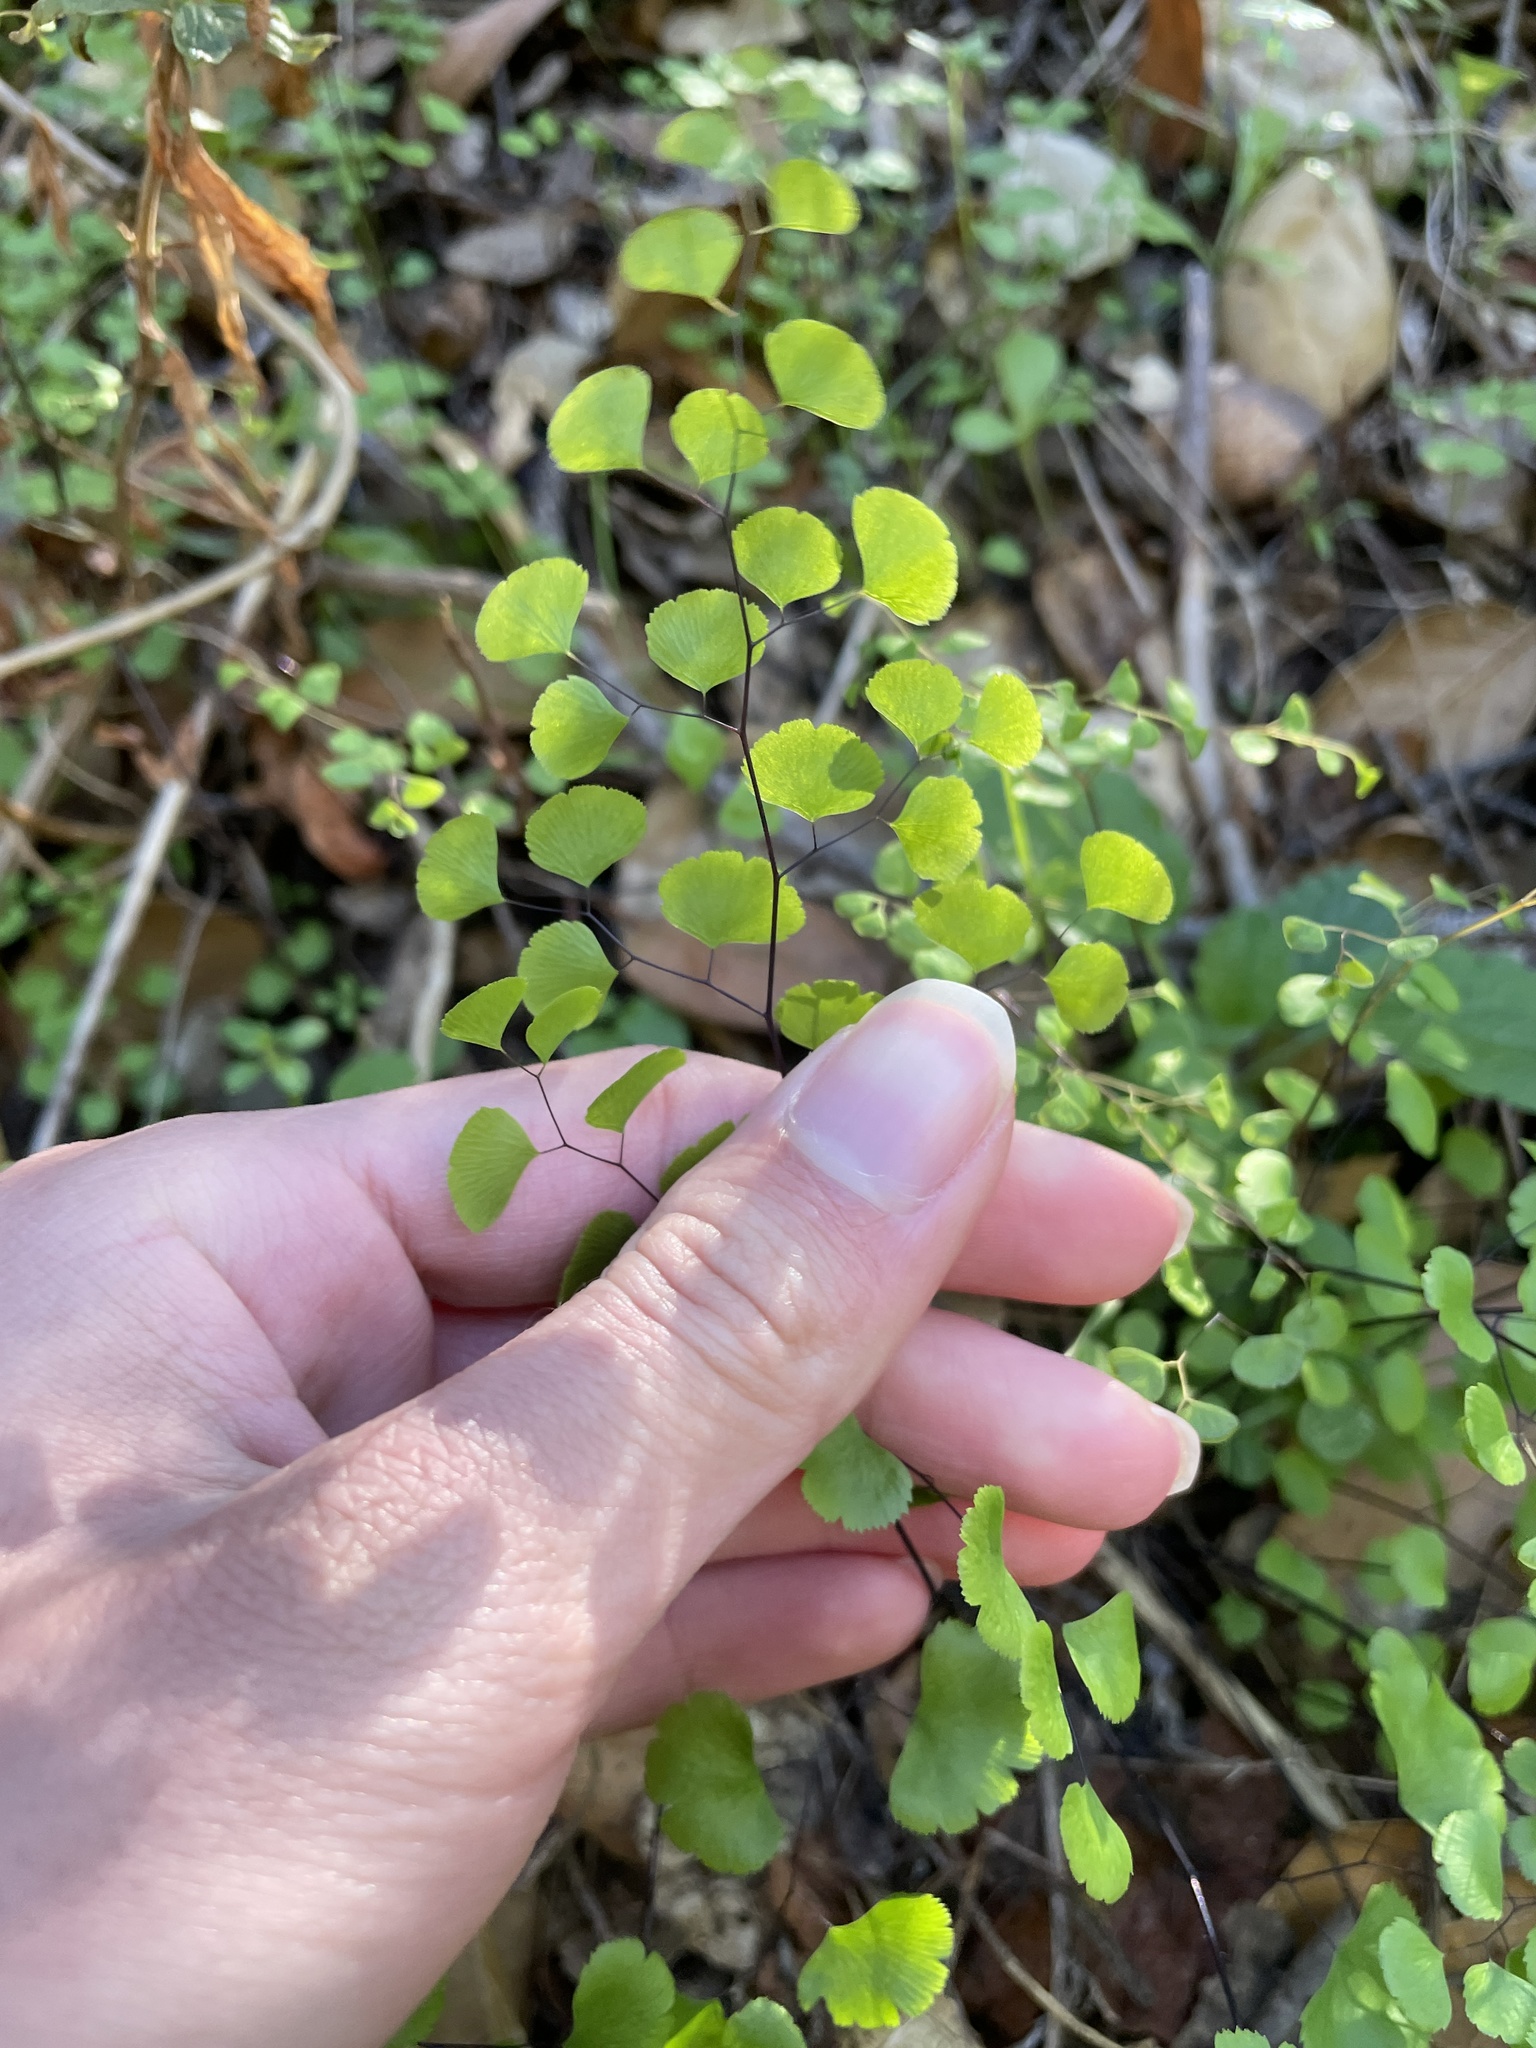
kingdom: Plantae
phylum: Tracheophyta
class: Polypodiopsida
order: Polypodiales
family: Pteridaceae
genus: Adiantum
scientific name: Adiantum jordanii
